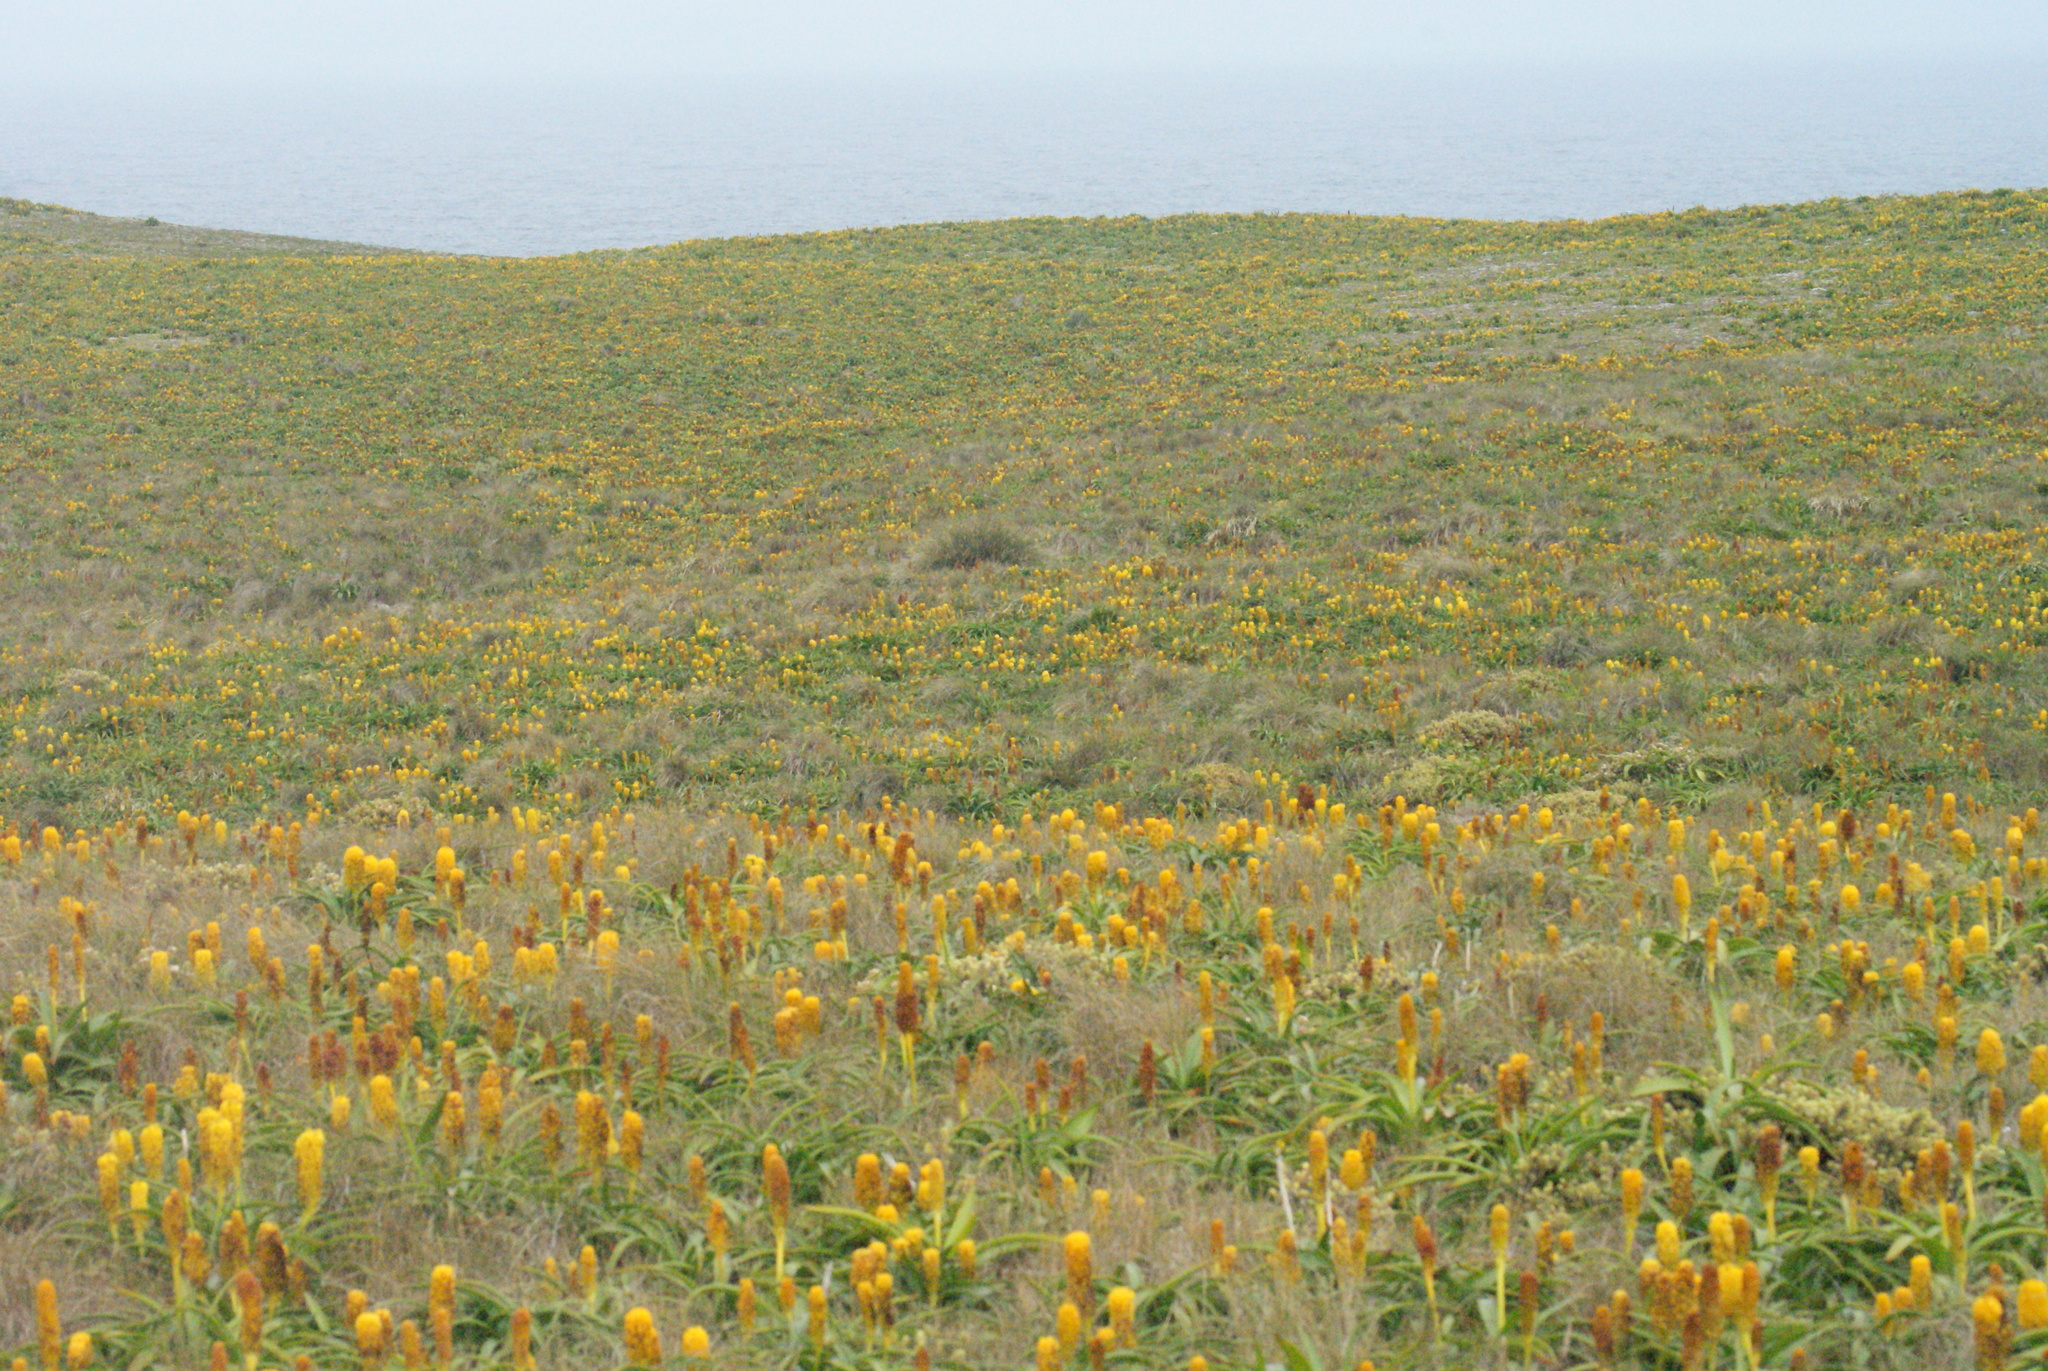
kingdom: Plantae
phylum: Tracheophyta
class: Liliopsida
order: Asparagales
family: Asphodelaceae
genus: Bulbinella
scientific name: Bulbinella rossii
